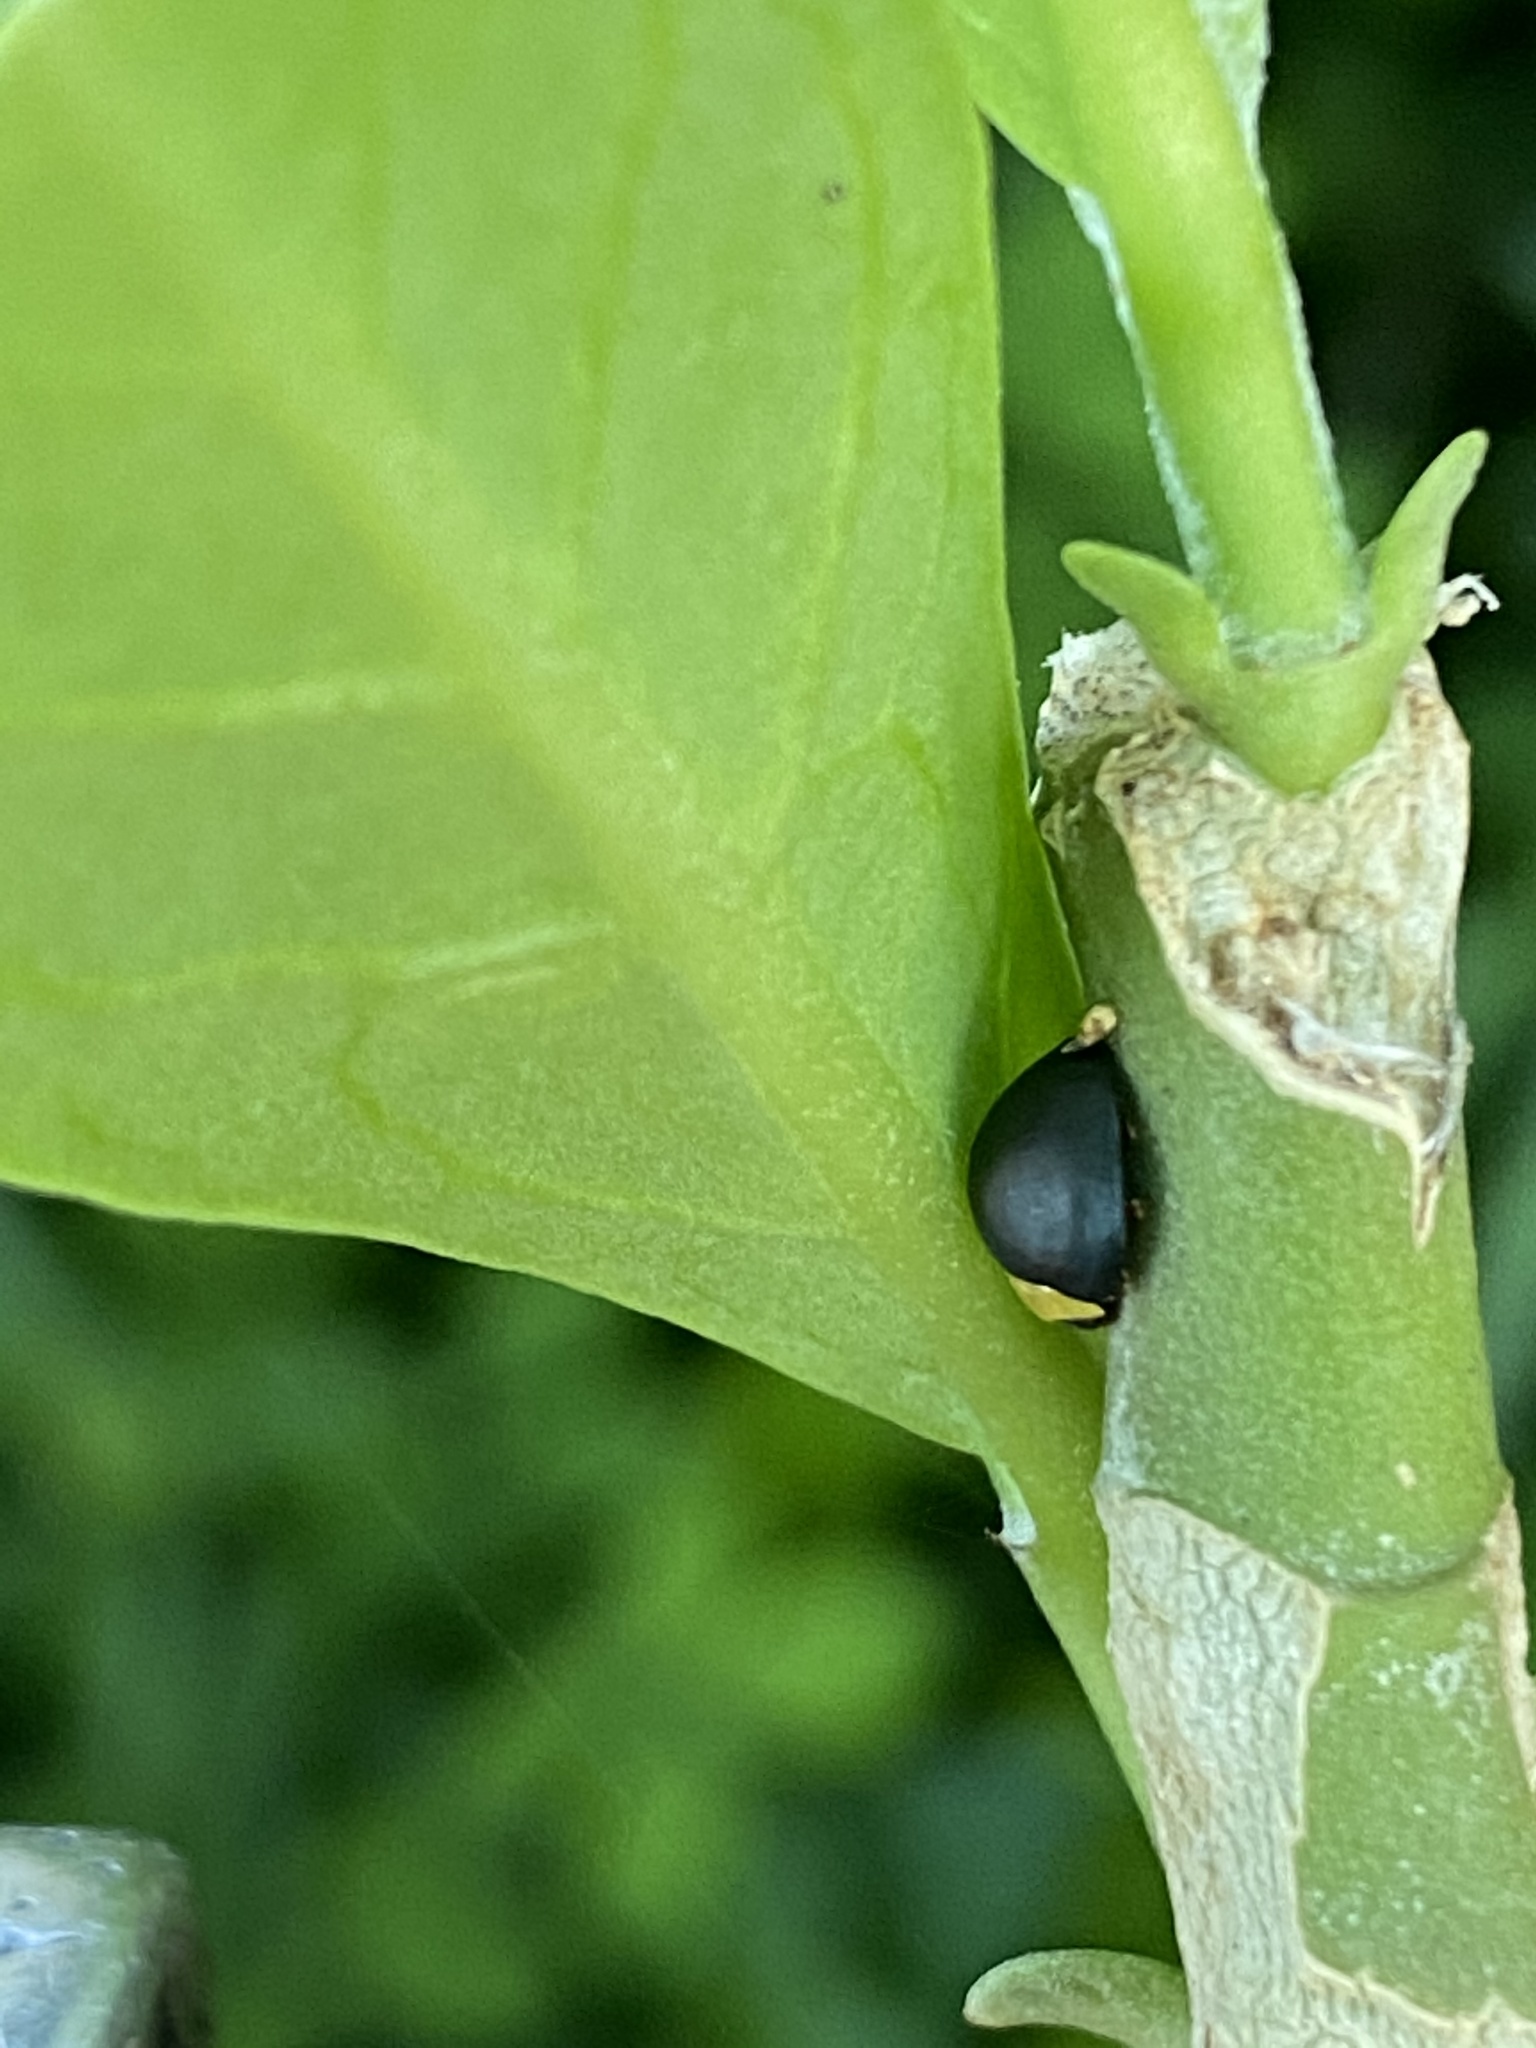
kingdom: Animalia
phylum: Arthropoda
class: Insecta
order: Coleoptera
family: Coccinellidae
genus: Egius
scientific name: Egius platycephalus
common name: Ladybird beetle
